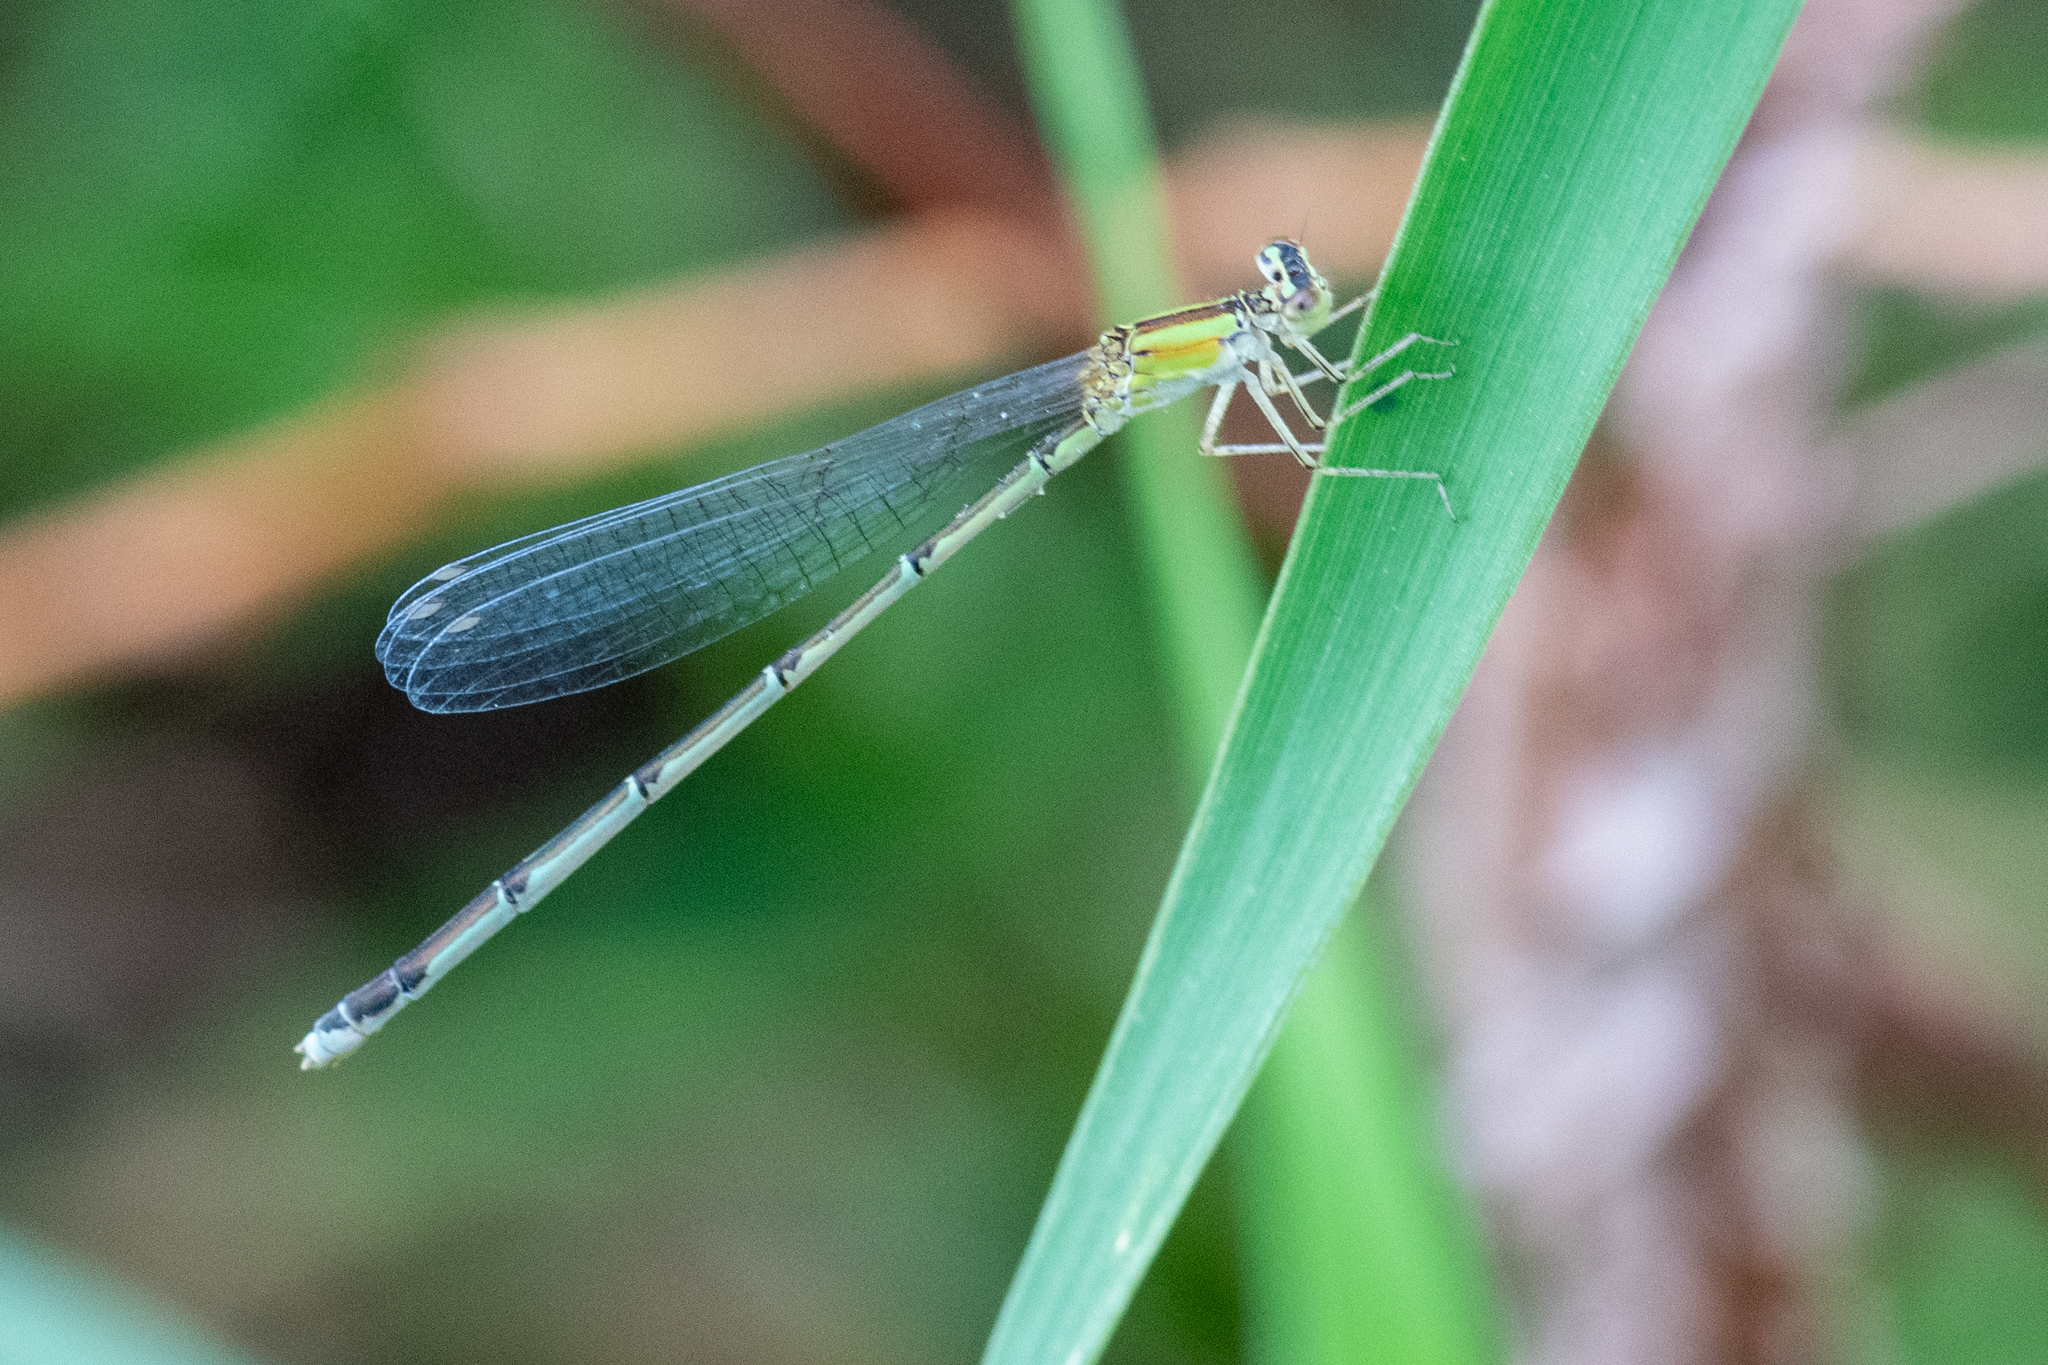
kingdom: Animalia
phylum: Arthropoda
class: Insecta
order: Odonata
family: Coenagrionidae
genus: Enallagma
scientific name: Enallagma vesperum
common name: Vesper bluet
